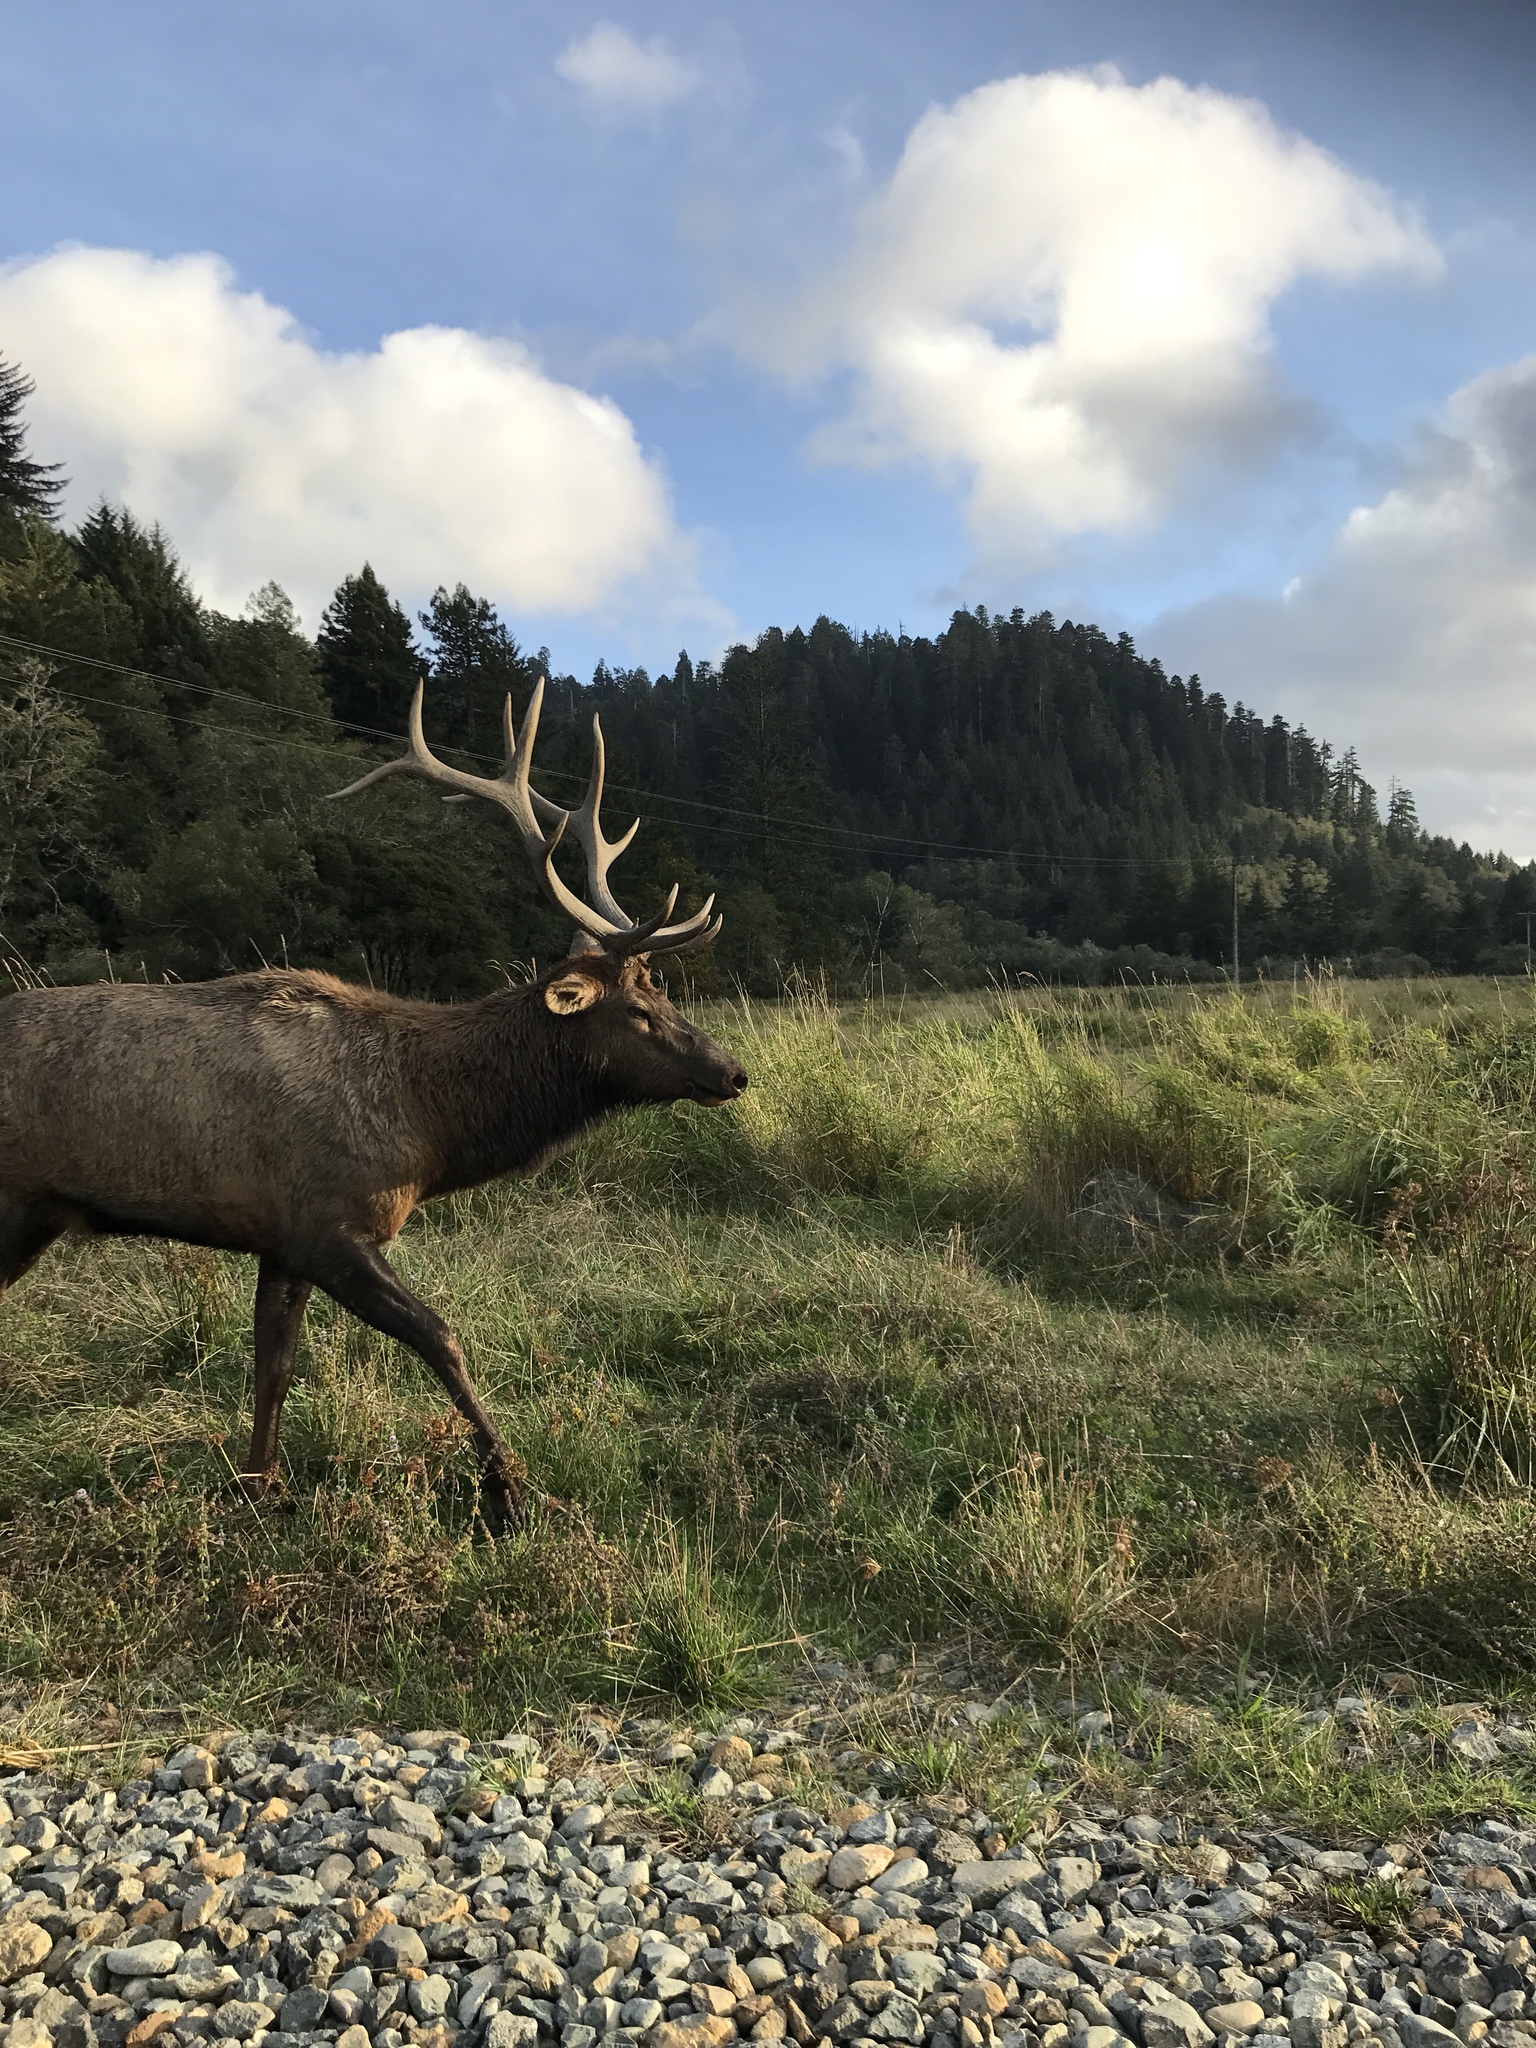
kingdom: Animalia
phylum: Chordata
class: Mammalia
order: Artiodactyla
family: Cervidae
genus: Cervus
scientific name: Cervus elaphus
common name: Red deer
